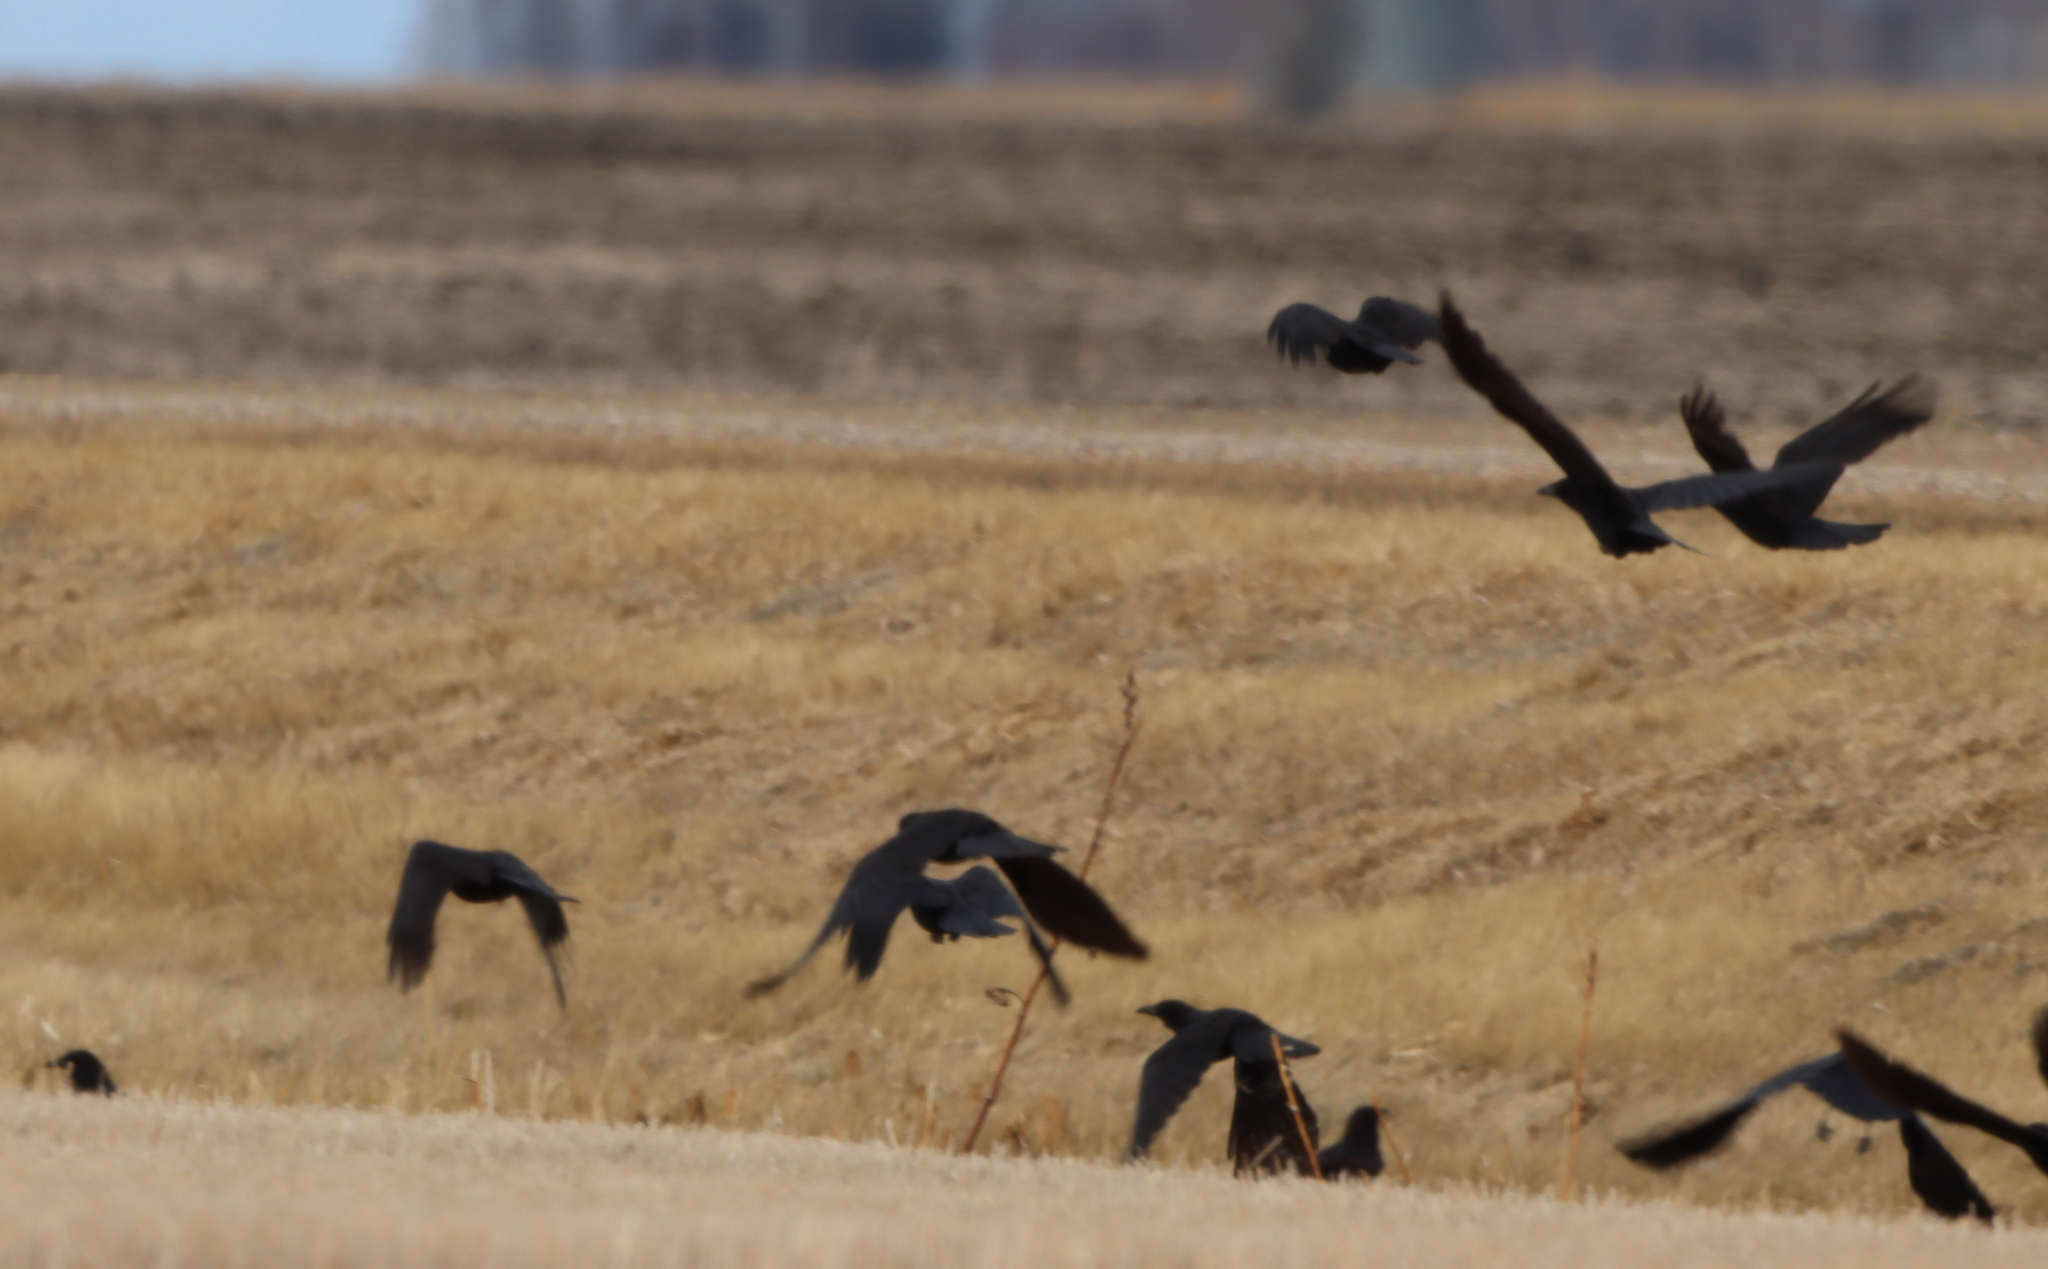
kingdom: Animalia
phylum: Chordata
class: Aves
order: Passeriformes
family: Corvidae
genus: Corvus
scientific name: Corvus brachyrhynchos
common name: American crow
